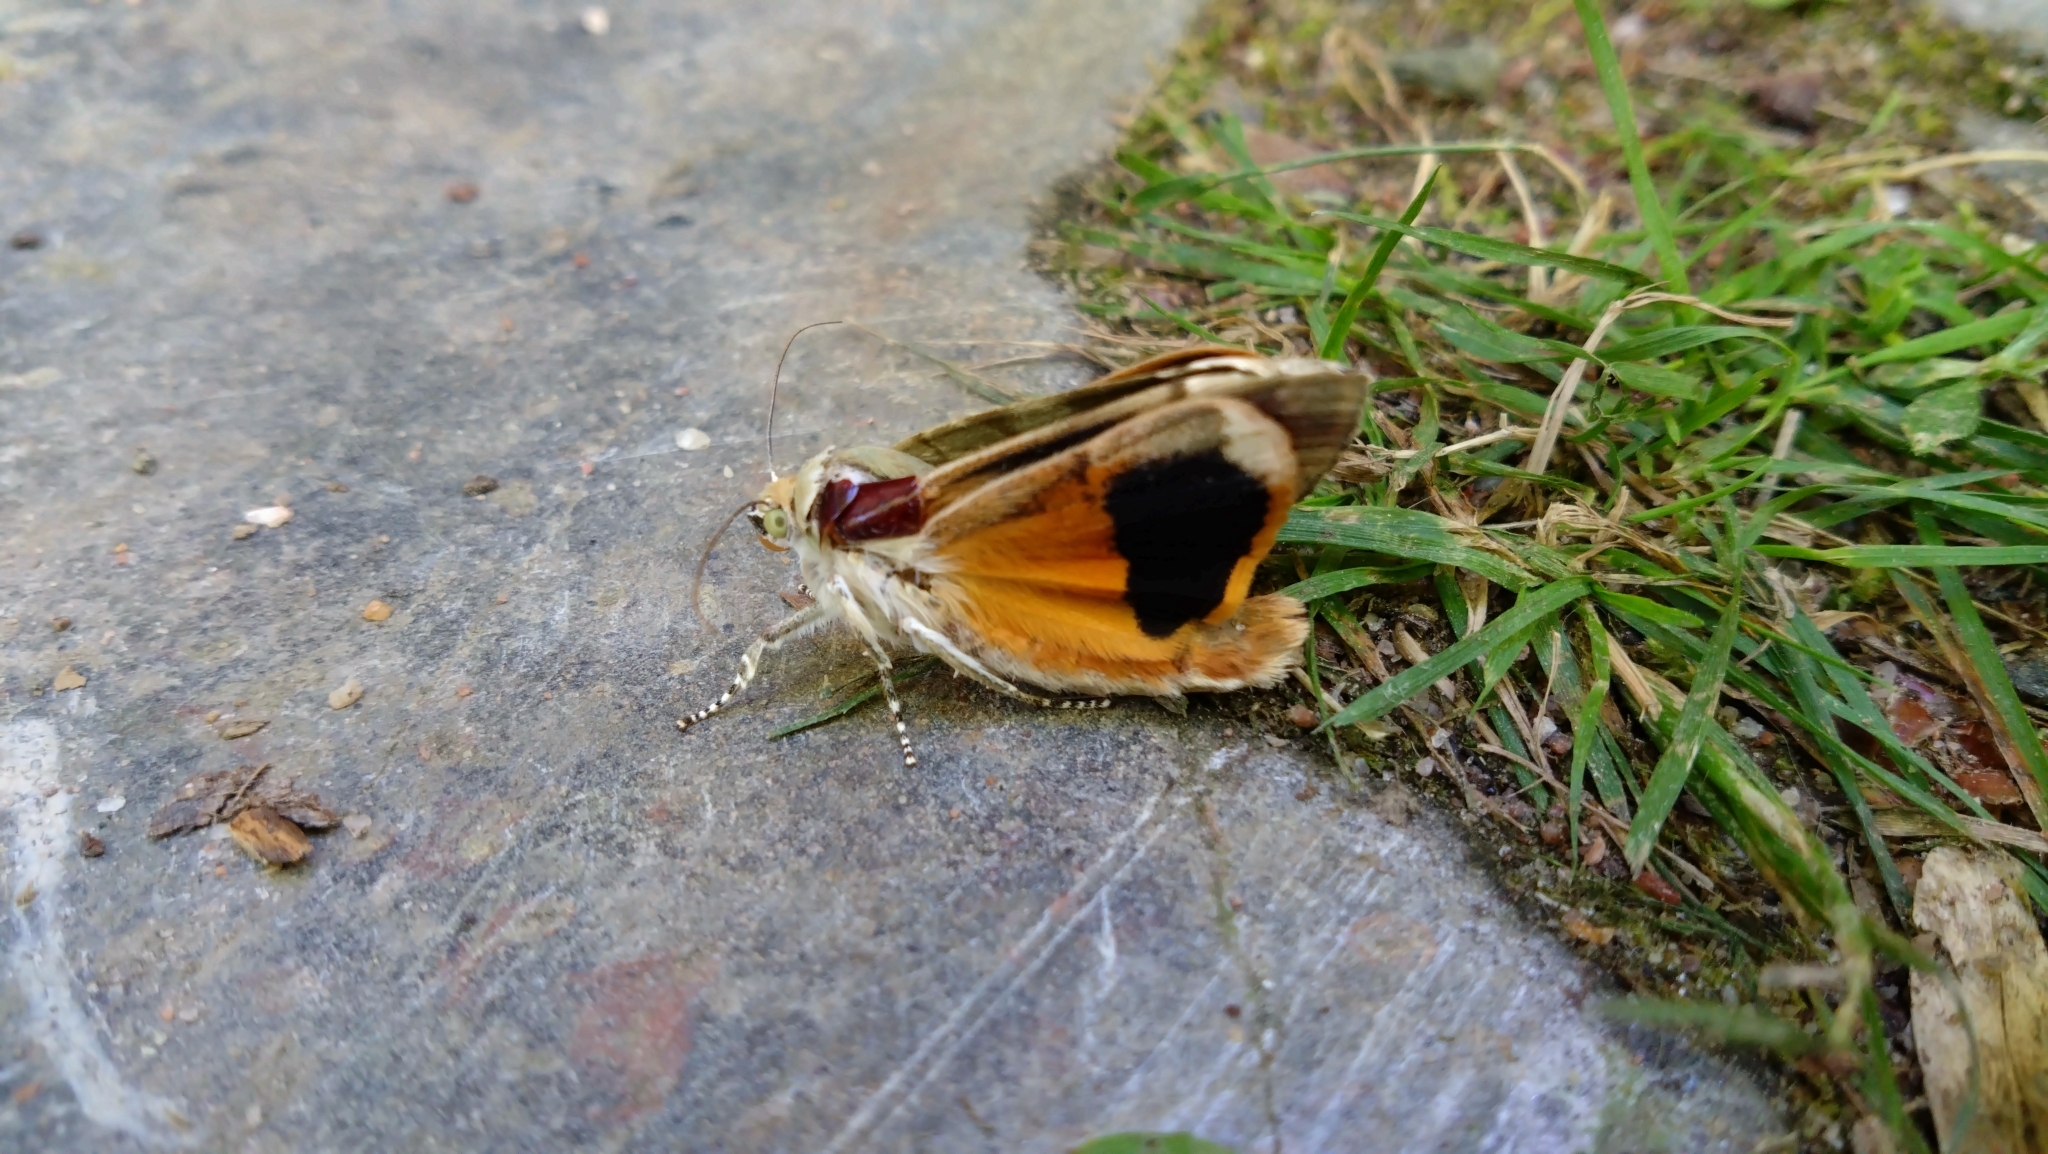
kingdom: Animalia
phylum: Arthropoda
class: Insecta
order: Lepidoptera
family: Noctuidae
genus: Noctua
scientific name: Noctua fimbriata
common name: Broad-bordered yellow underwing
